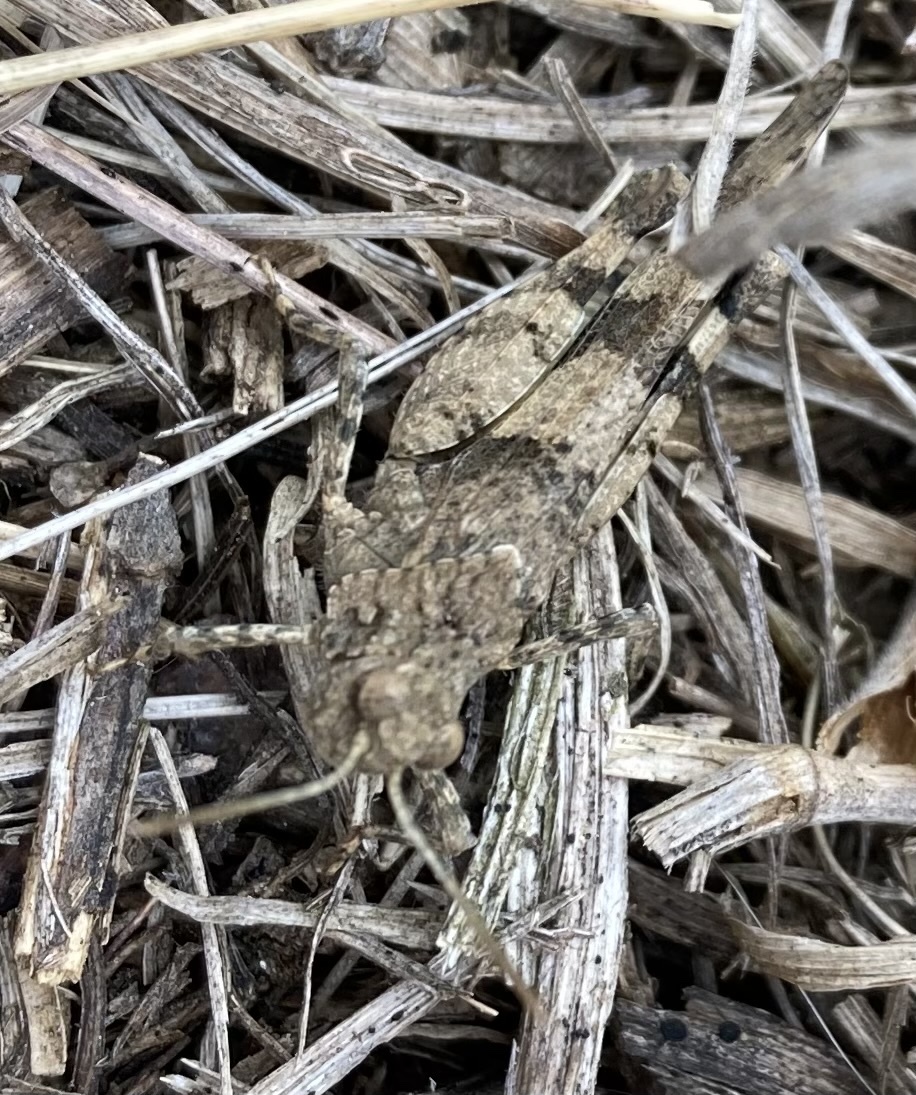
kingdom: Animalia
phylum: Arthropoda
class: Insecta
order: Orthoptera
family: Acrididae
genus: Oedipoda
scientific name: Oedipoda caerulescens
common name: Blue-winged grasshopper
